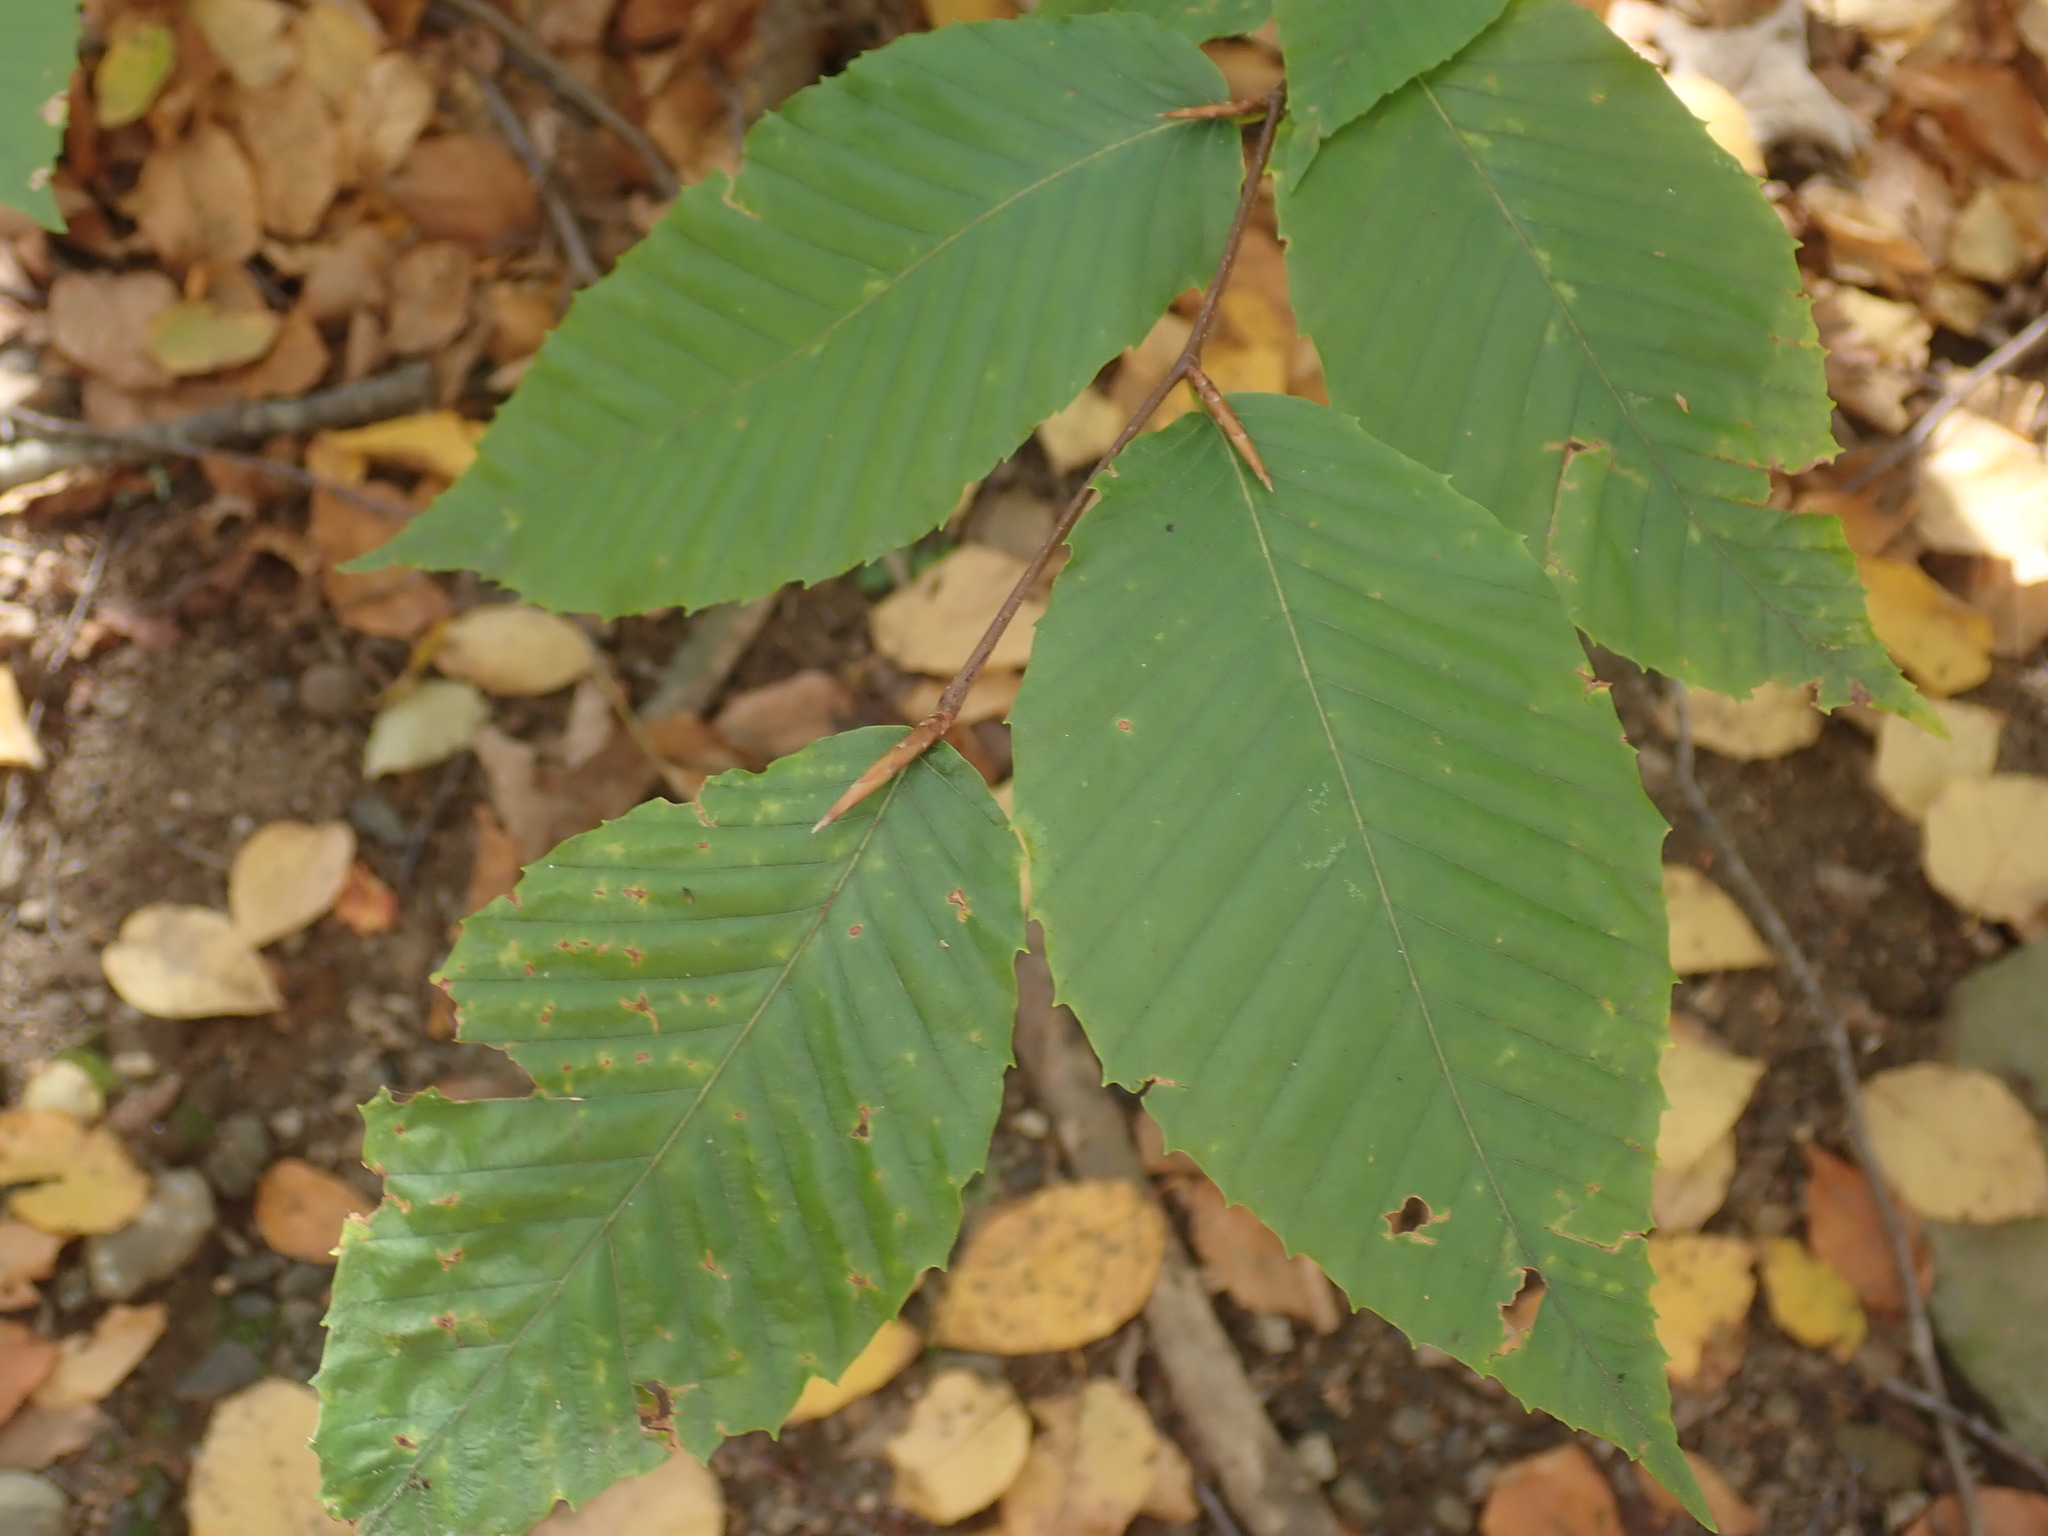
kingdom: Plantae
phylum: Tracheophyta
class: Magnoliopsida
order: Fagales
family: Fagaceae
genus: Fagus
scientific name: Fagus grandifolia
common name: American beech
